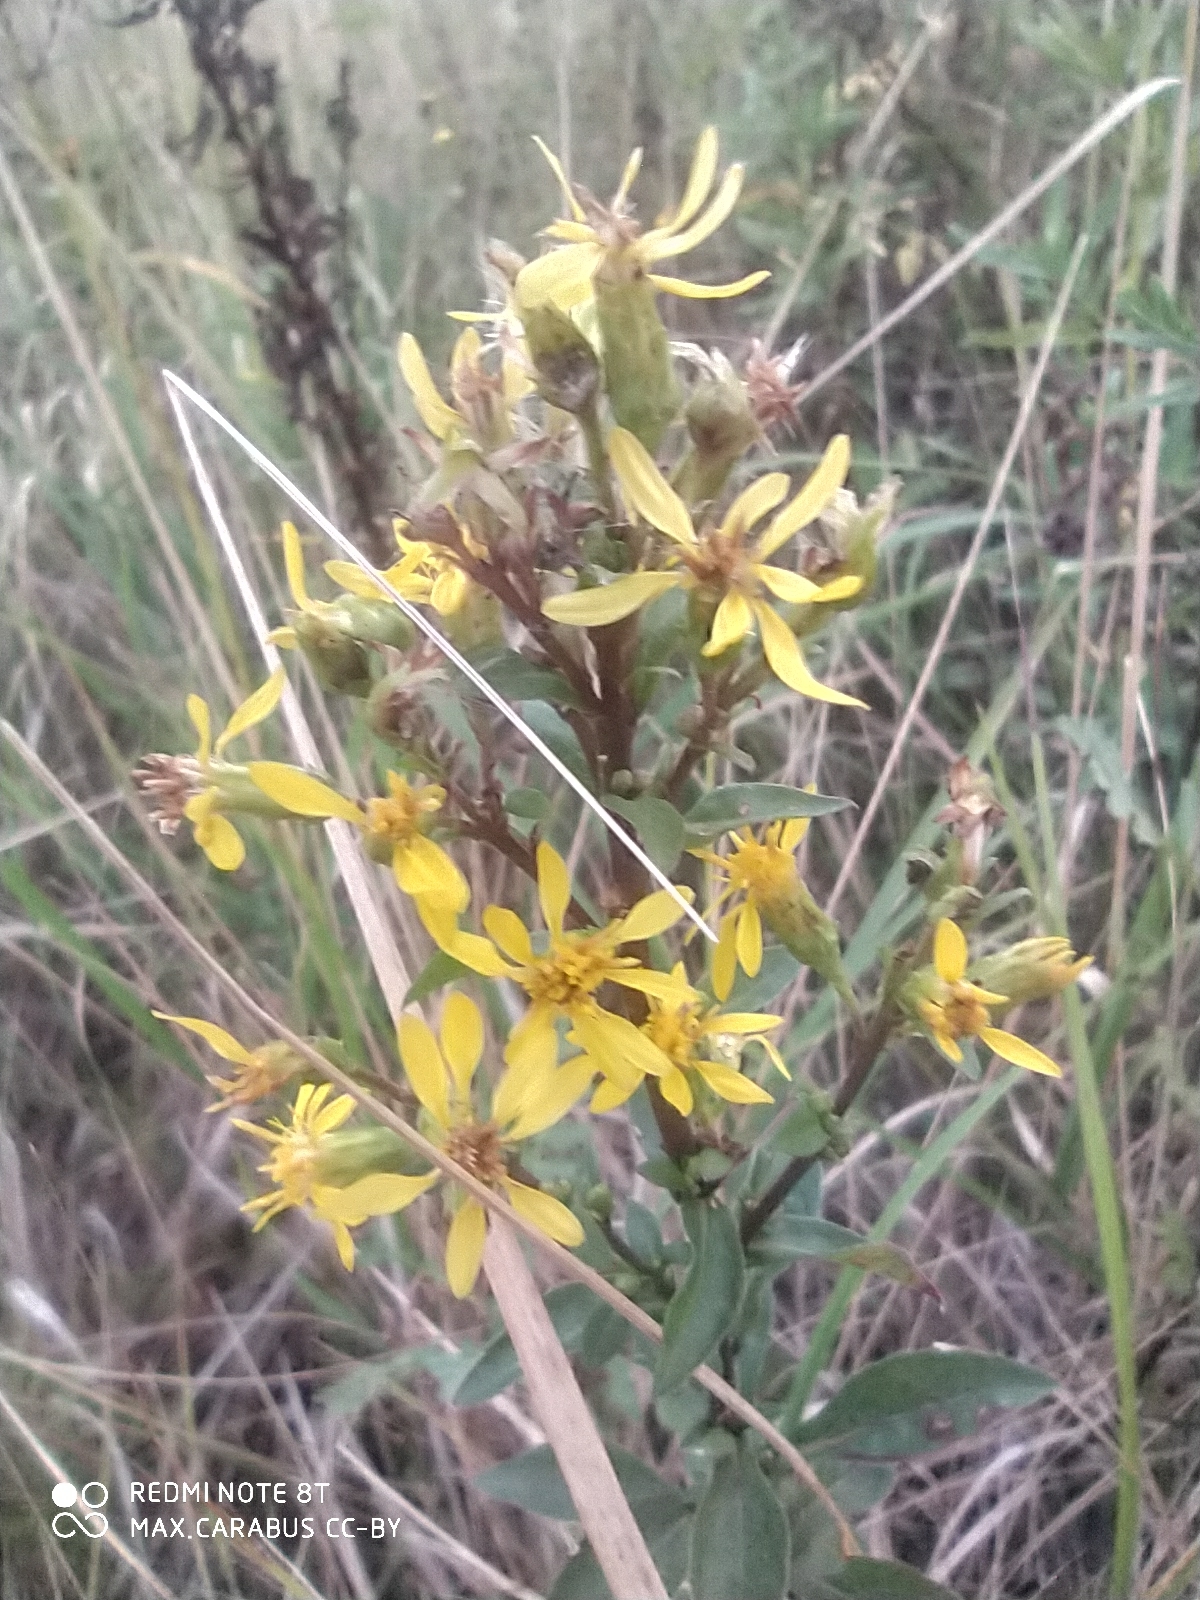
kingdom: Plantae
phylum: Tracheophyta
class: Magnoliopsida
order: Asterales
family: Asteraceae
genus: Solidago
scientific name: Solidago virgaurea
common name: Goldenrod
